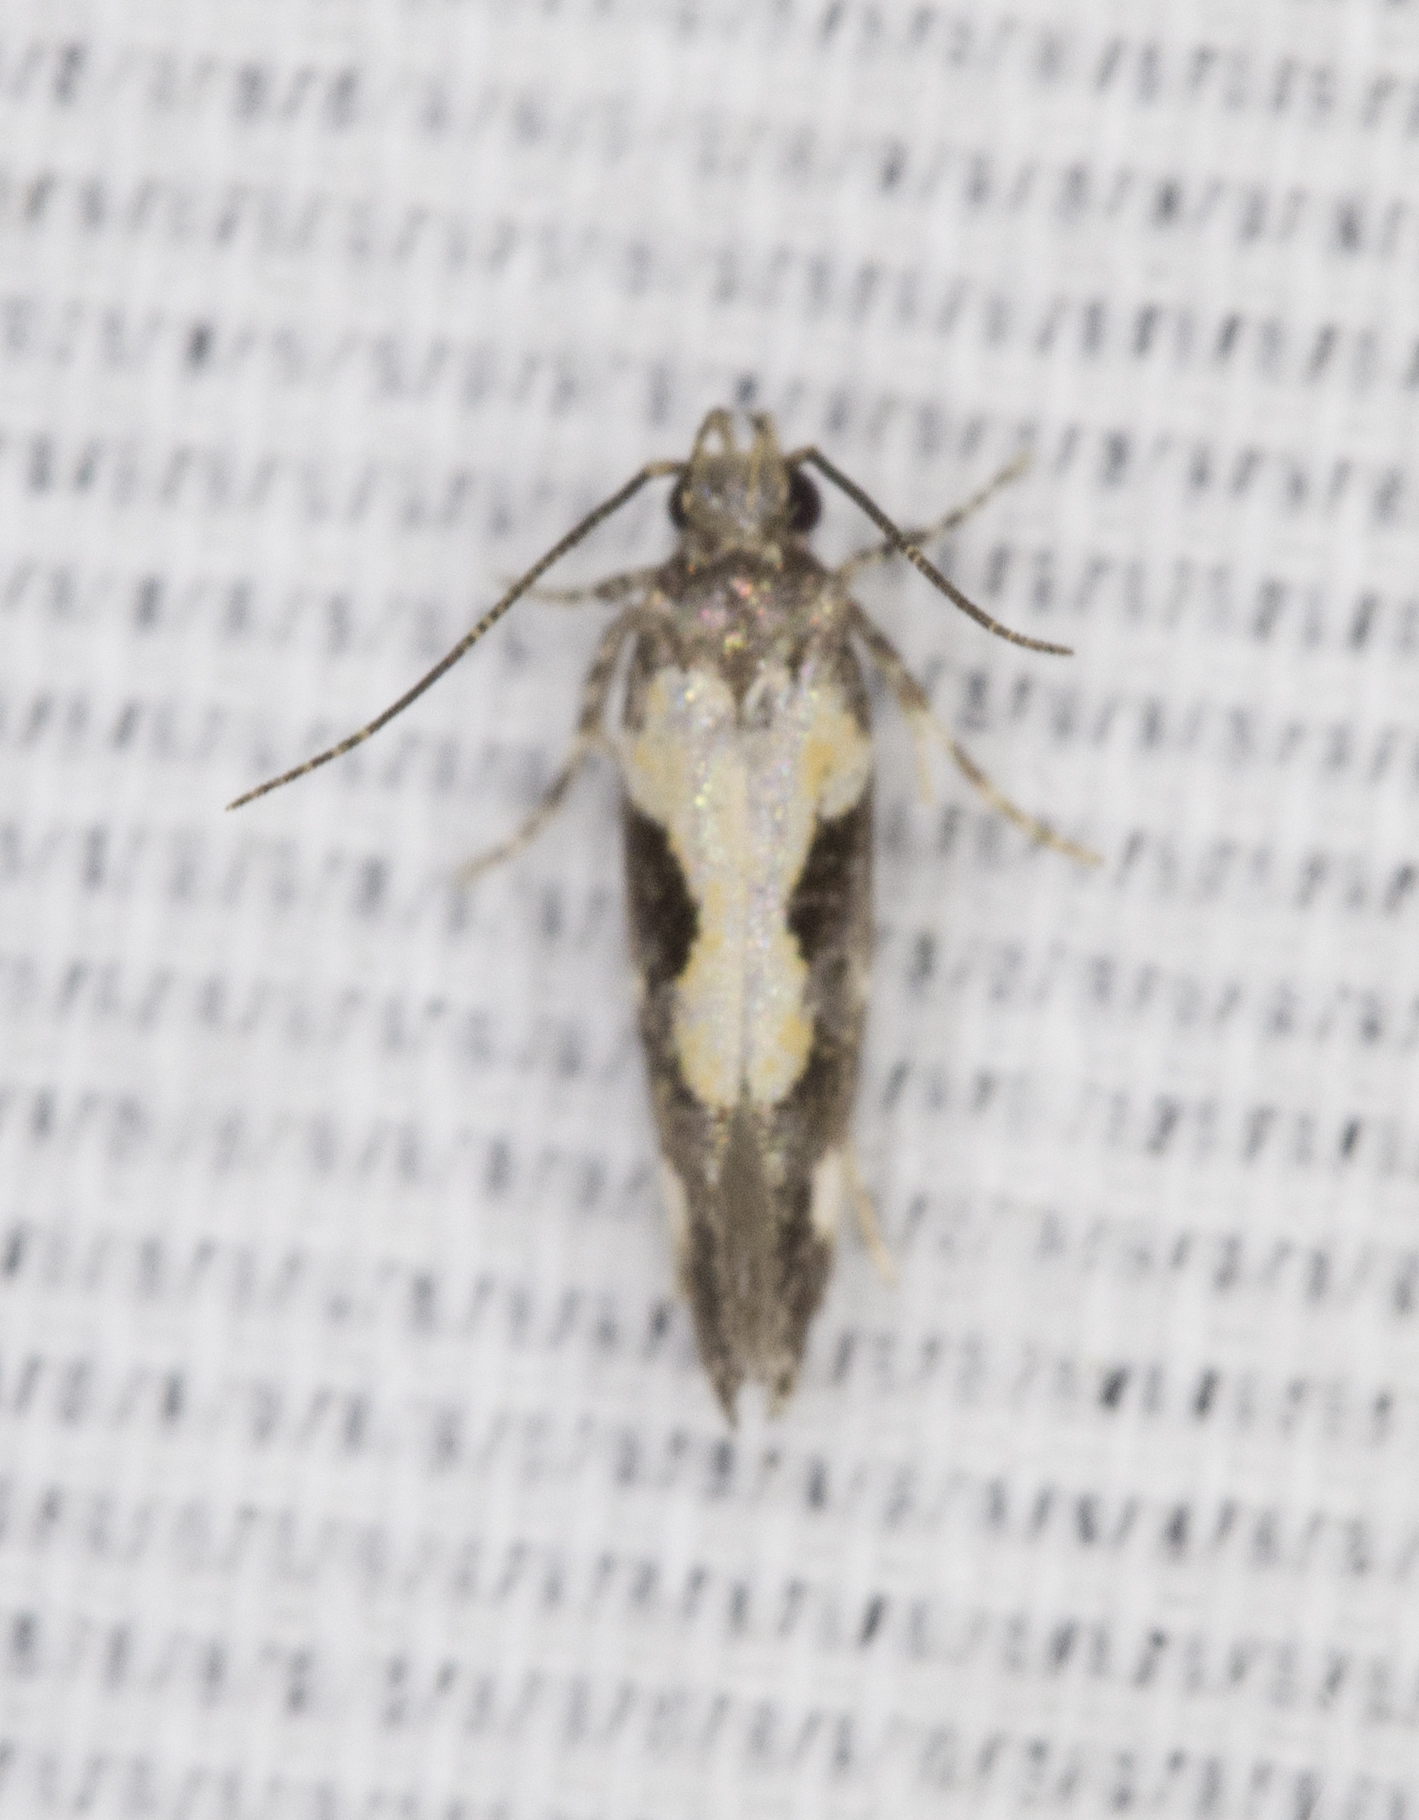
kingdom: Animalia
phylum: Arthropoda
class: Insecta
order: Lepidoptera
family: Gelechiidae
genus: Stegasta
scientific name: Stegasta bosqueella
